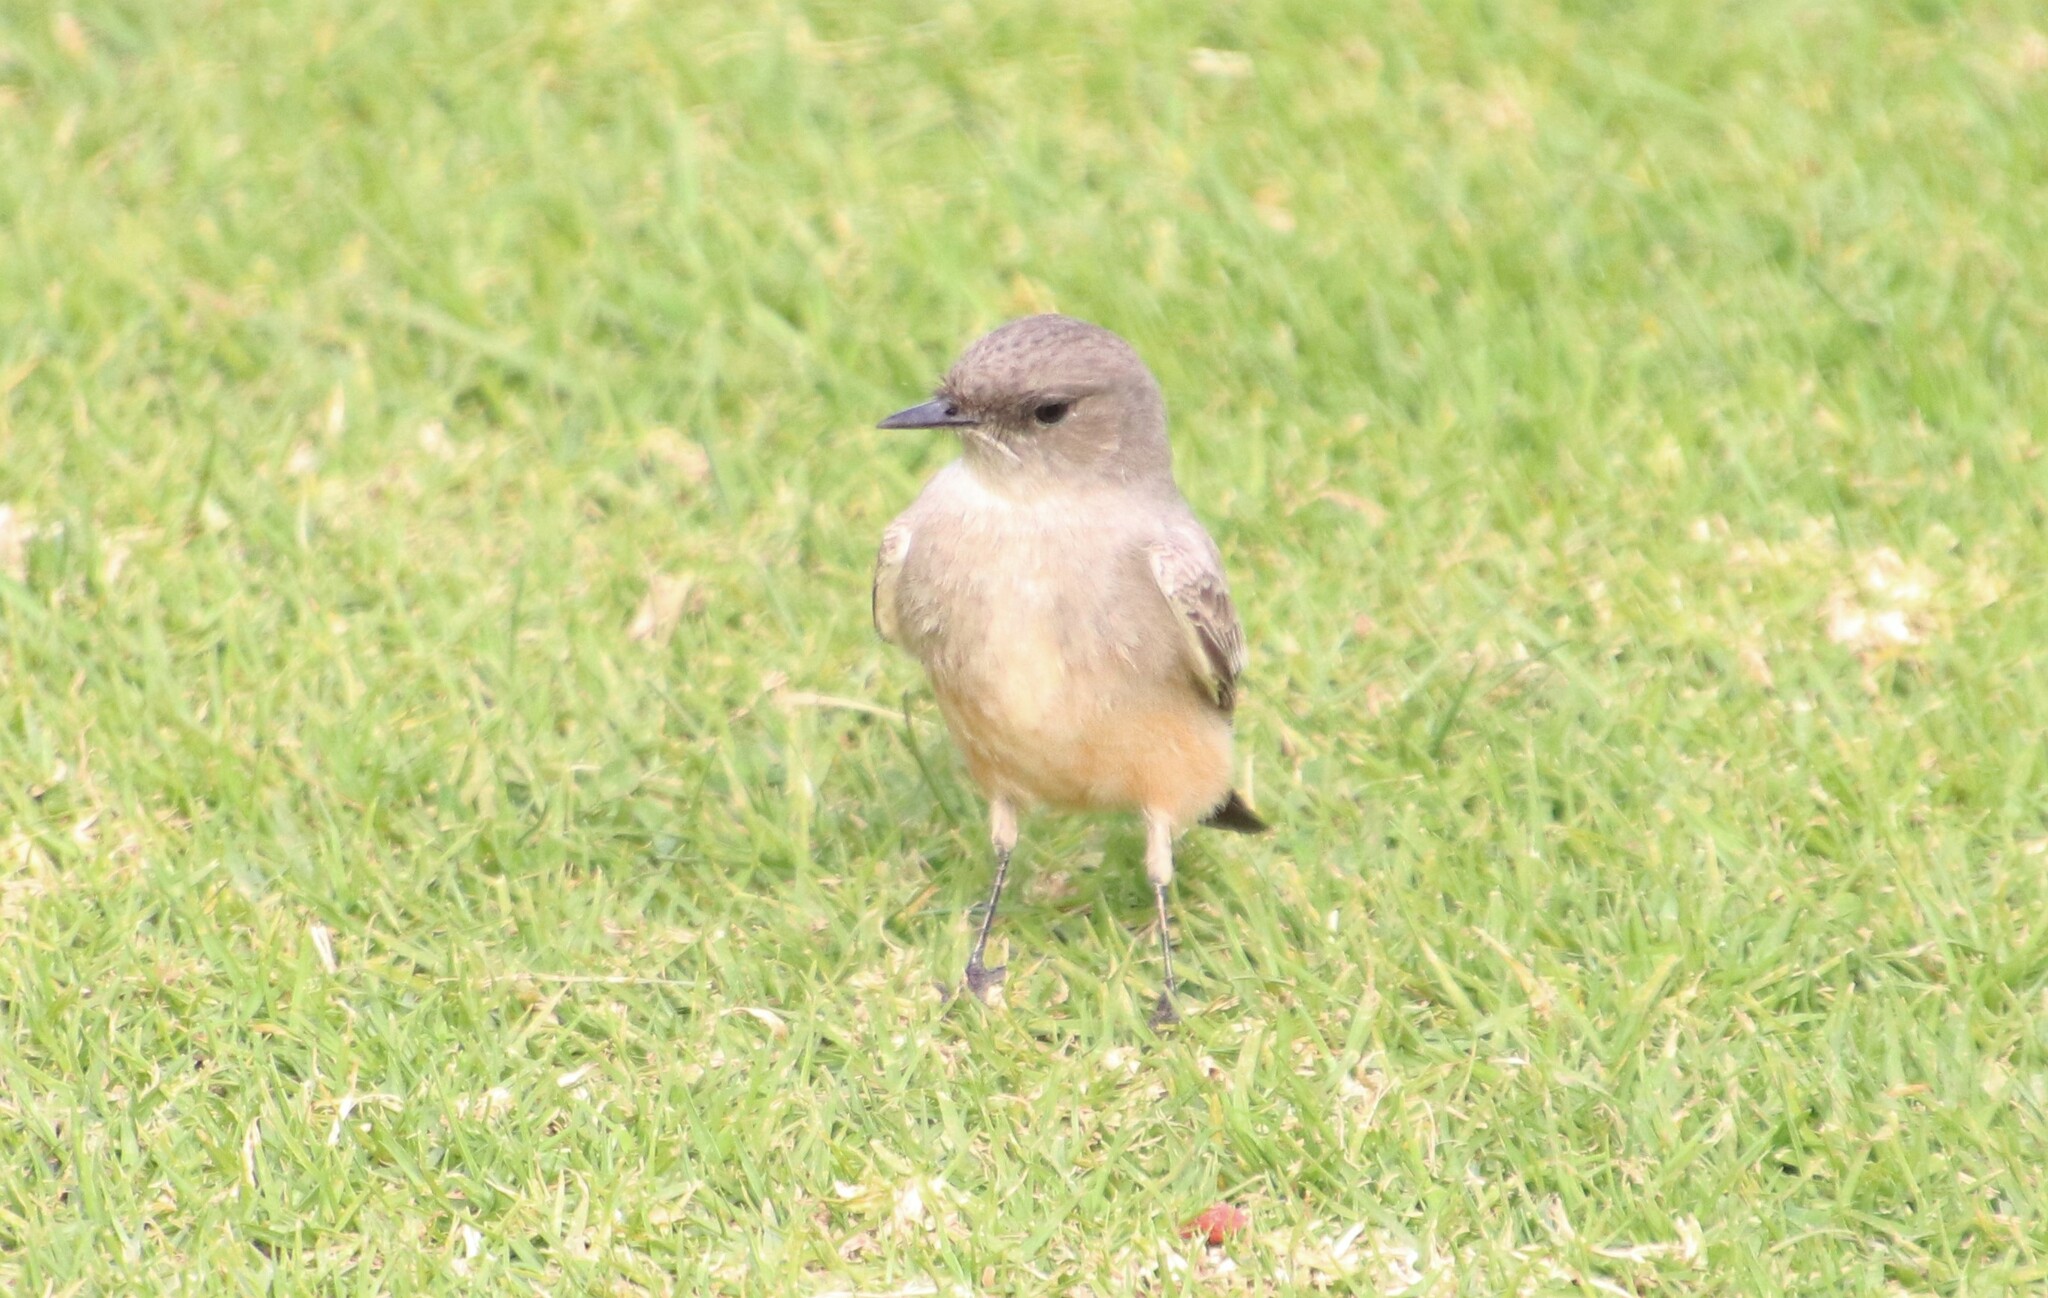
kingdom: Animalia
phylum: Chordata
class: Aves
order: Passeriformes
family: Tyrannidae
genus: Sayornis
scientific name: Sayornis saya
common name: Say's phoebe
